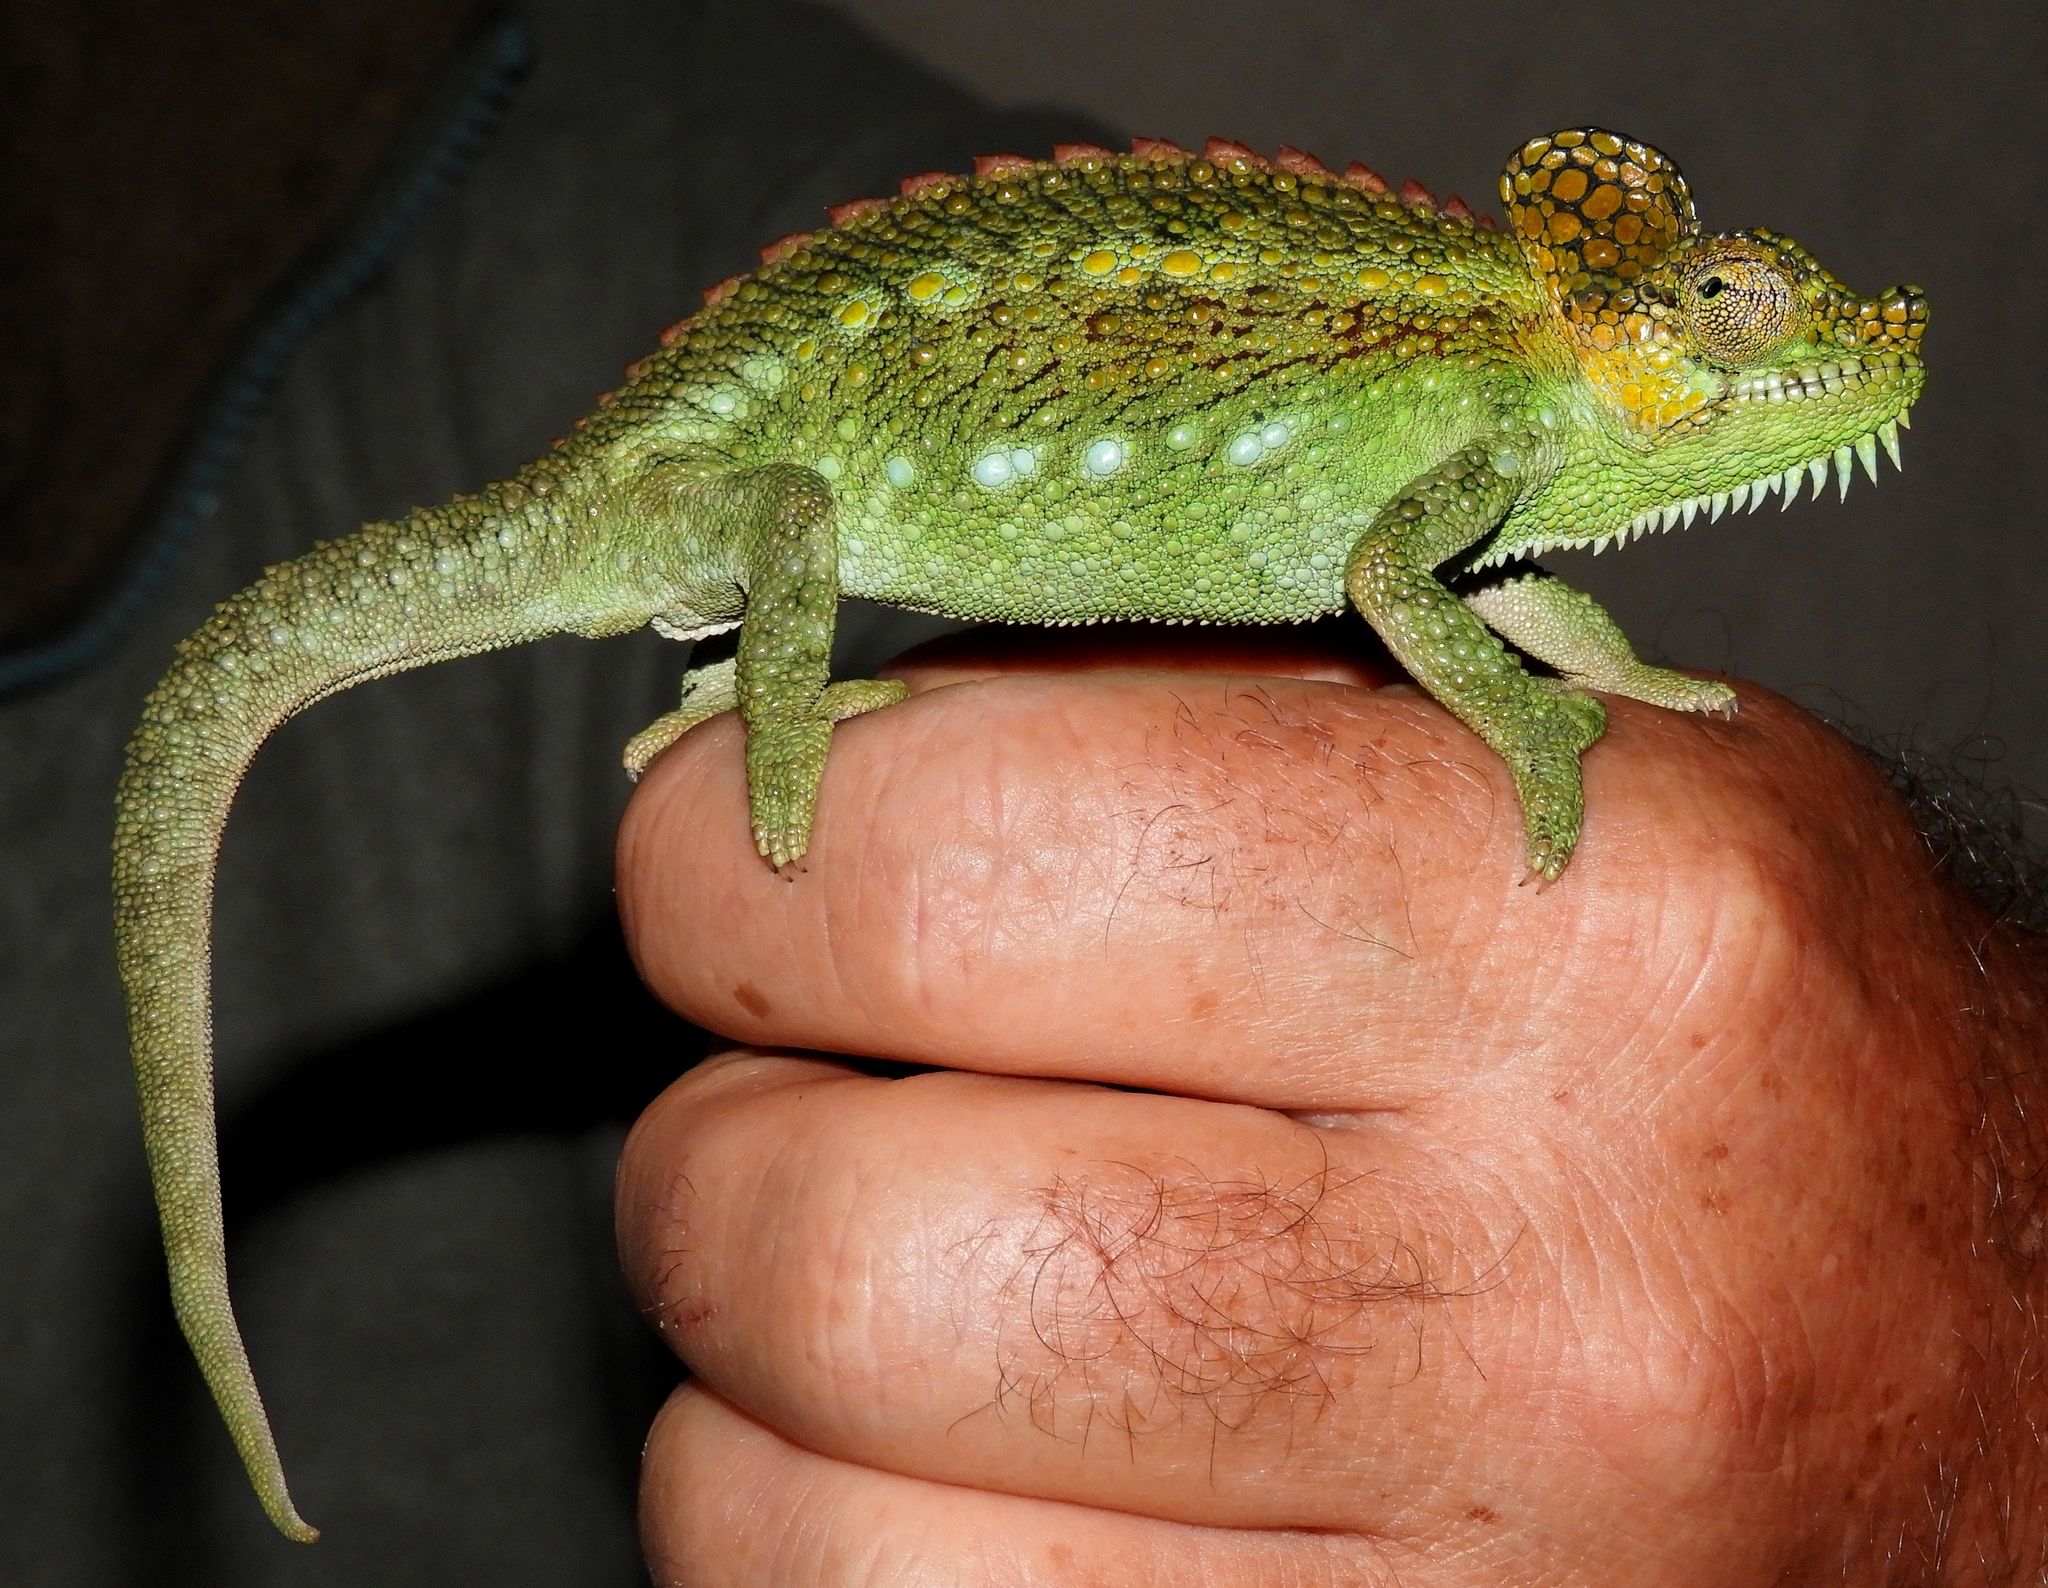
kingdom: Animalia
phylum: Chordata
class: Squamata
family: Chamaeleonidae
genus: Trioceros
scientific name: Trioceros hoehnelii
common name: High-casqued chameleon
